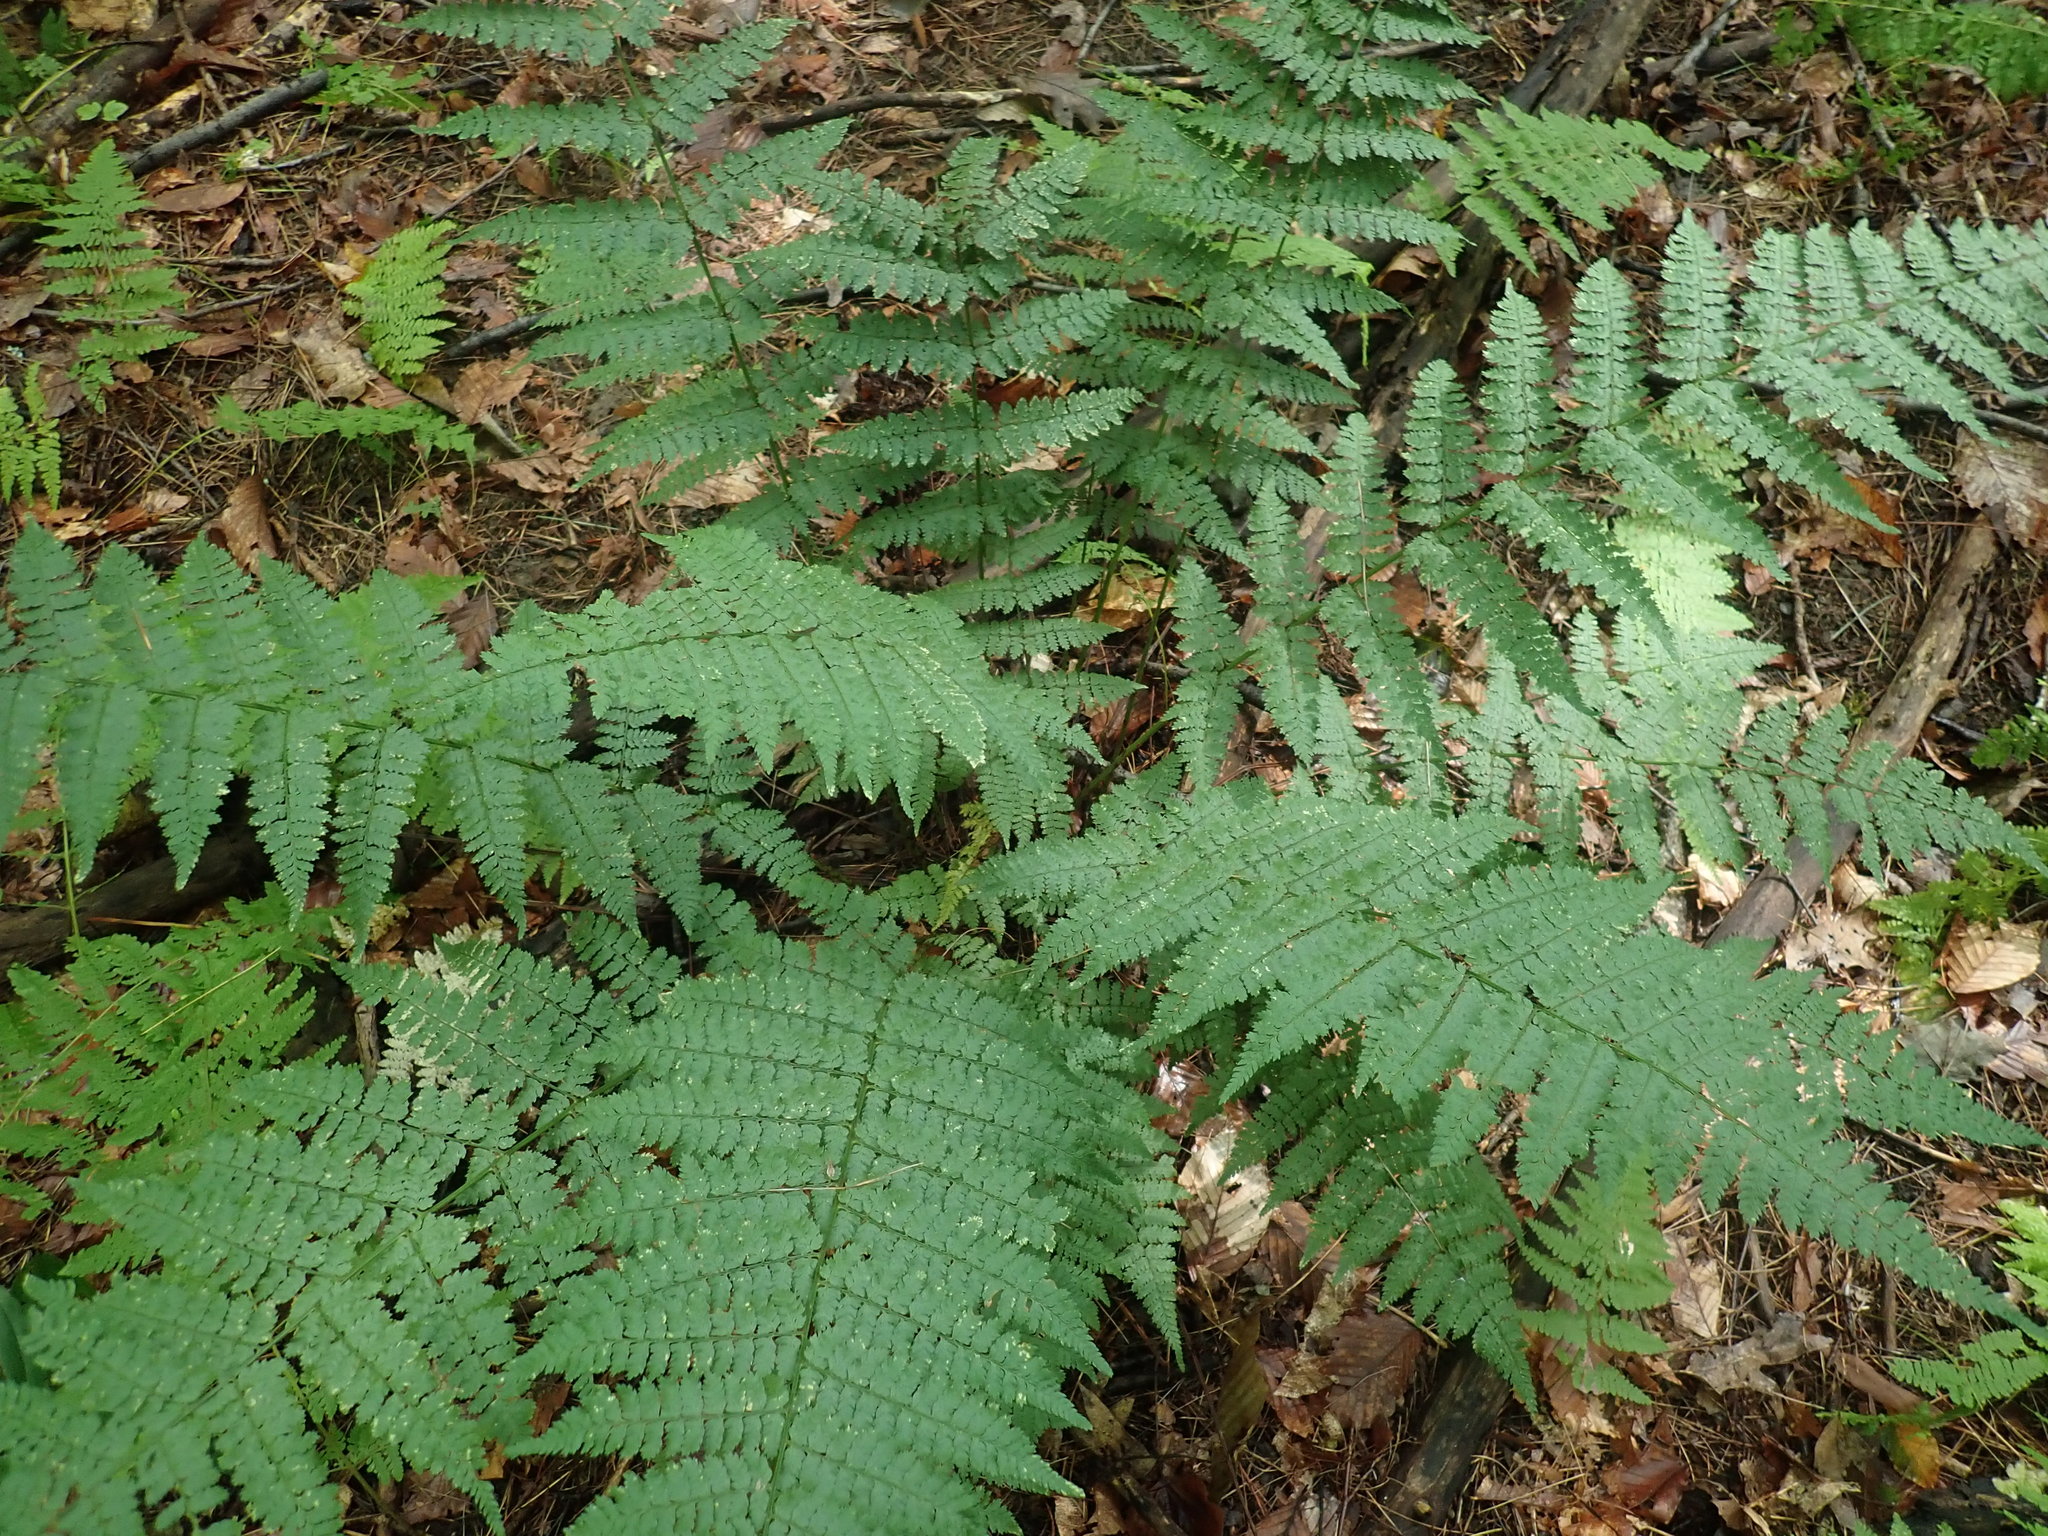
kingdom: Plantae
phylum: Tracheophyta
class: Polypodiopsida
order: Polypodiales
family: Dryopteridaceae
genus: Dryopteris
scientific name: Dryopteris intermedia
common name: Evergreen wood fern
